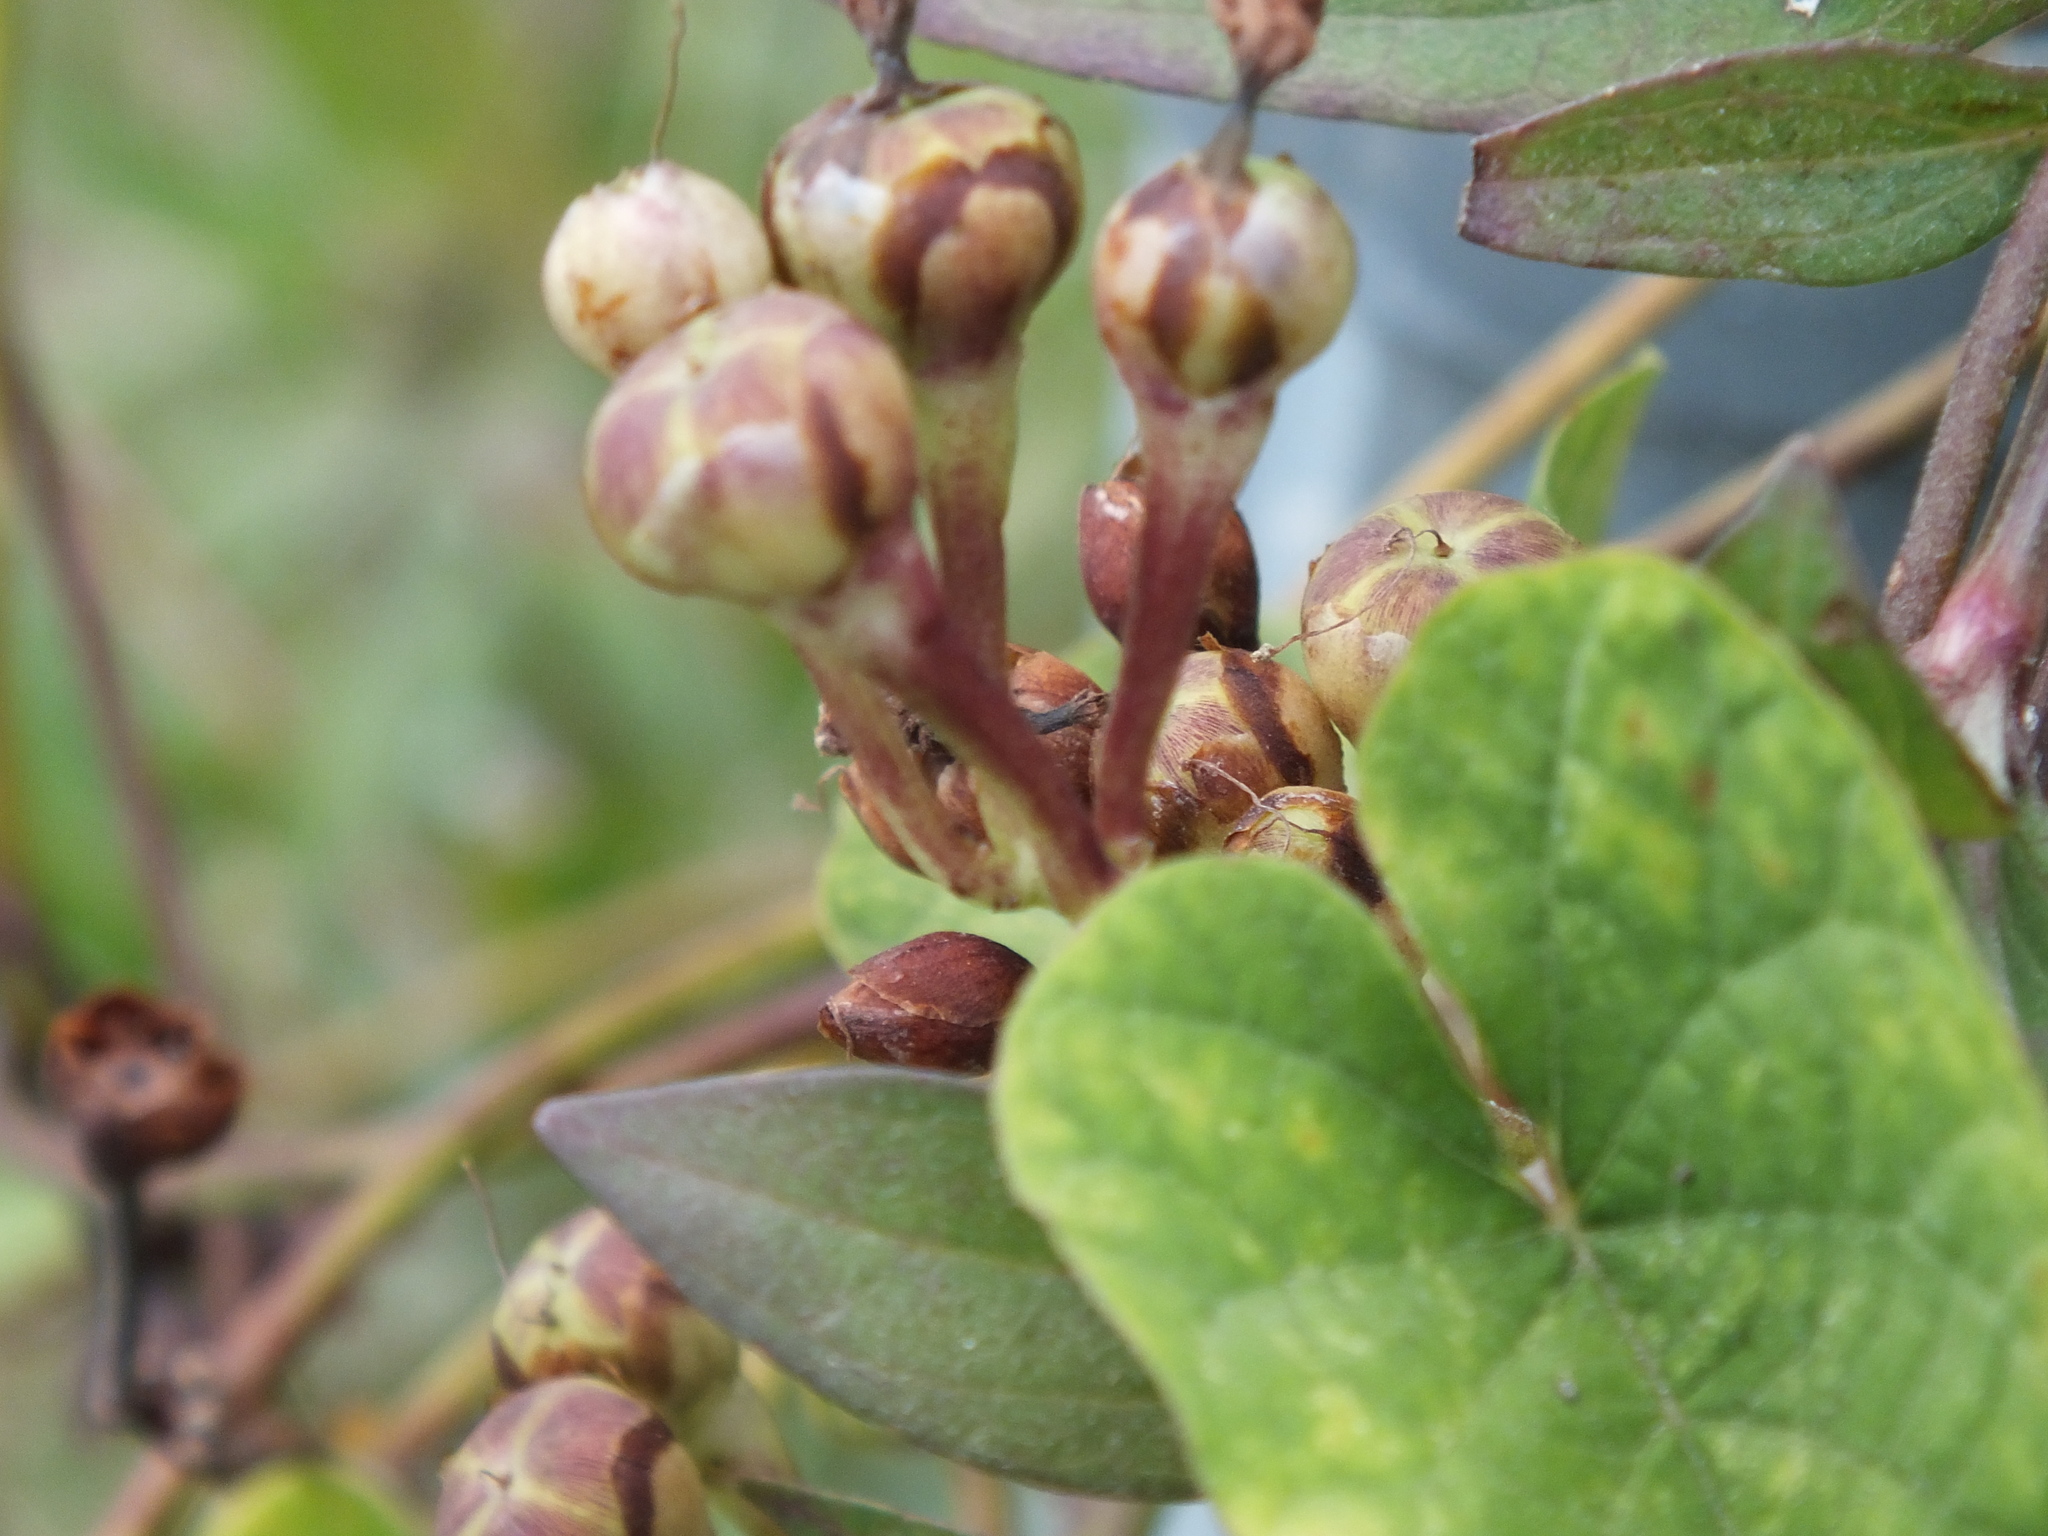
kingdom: Plantae
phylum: Tracheophyta
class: Magnoliopsida
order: Solanales
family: Convolvulaceae
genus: Camonea
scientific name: Camonea umbellata
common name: Hogvine
